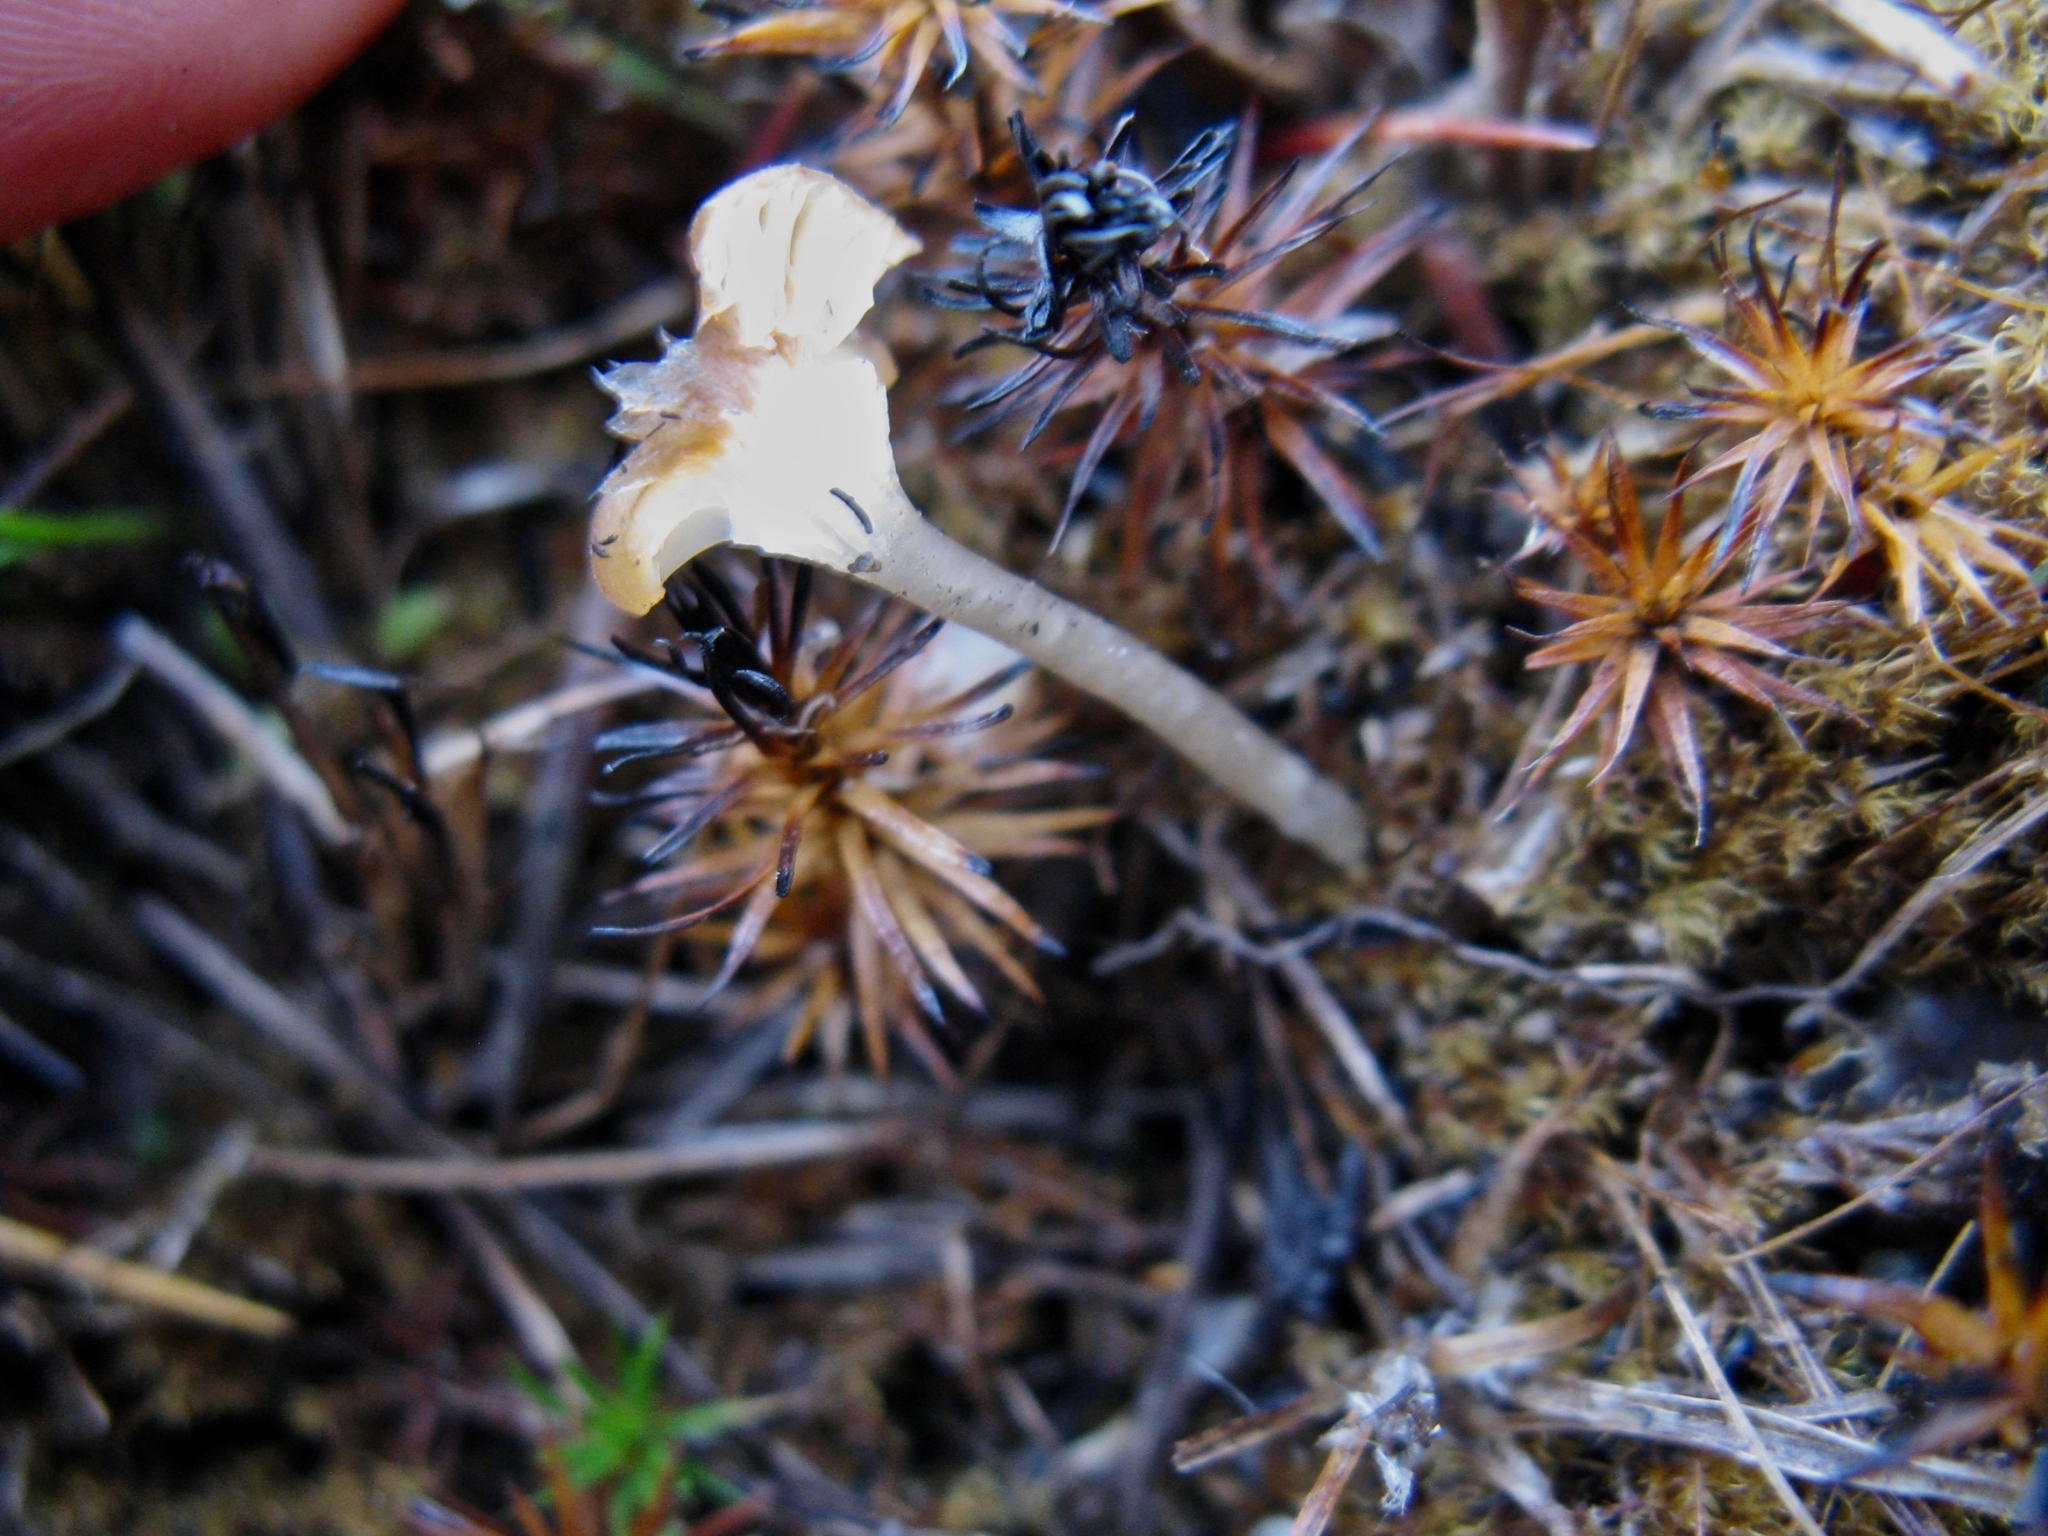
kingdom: Fungi
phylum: Basidiomycota
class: Agaricomycetes
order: Hymenochaetales
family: Rickenellaceae
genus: Rickenella
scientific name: Rickenella fibula
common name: Orange mosscap
